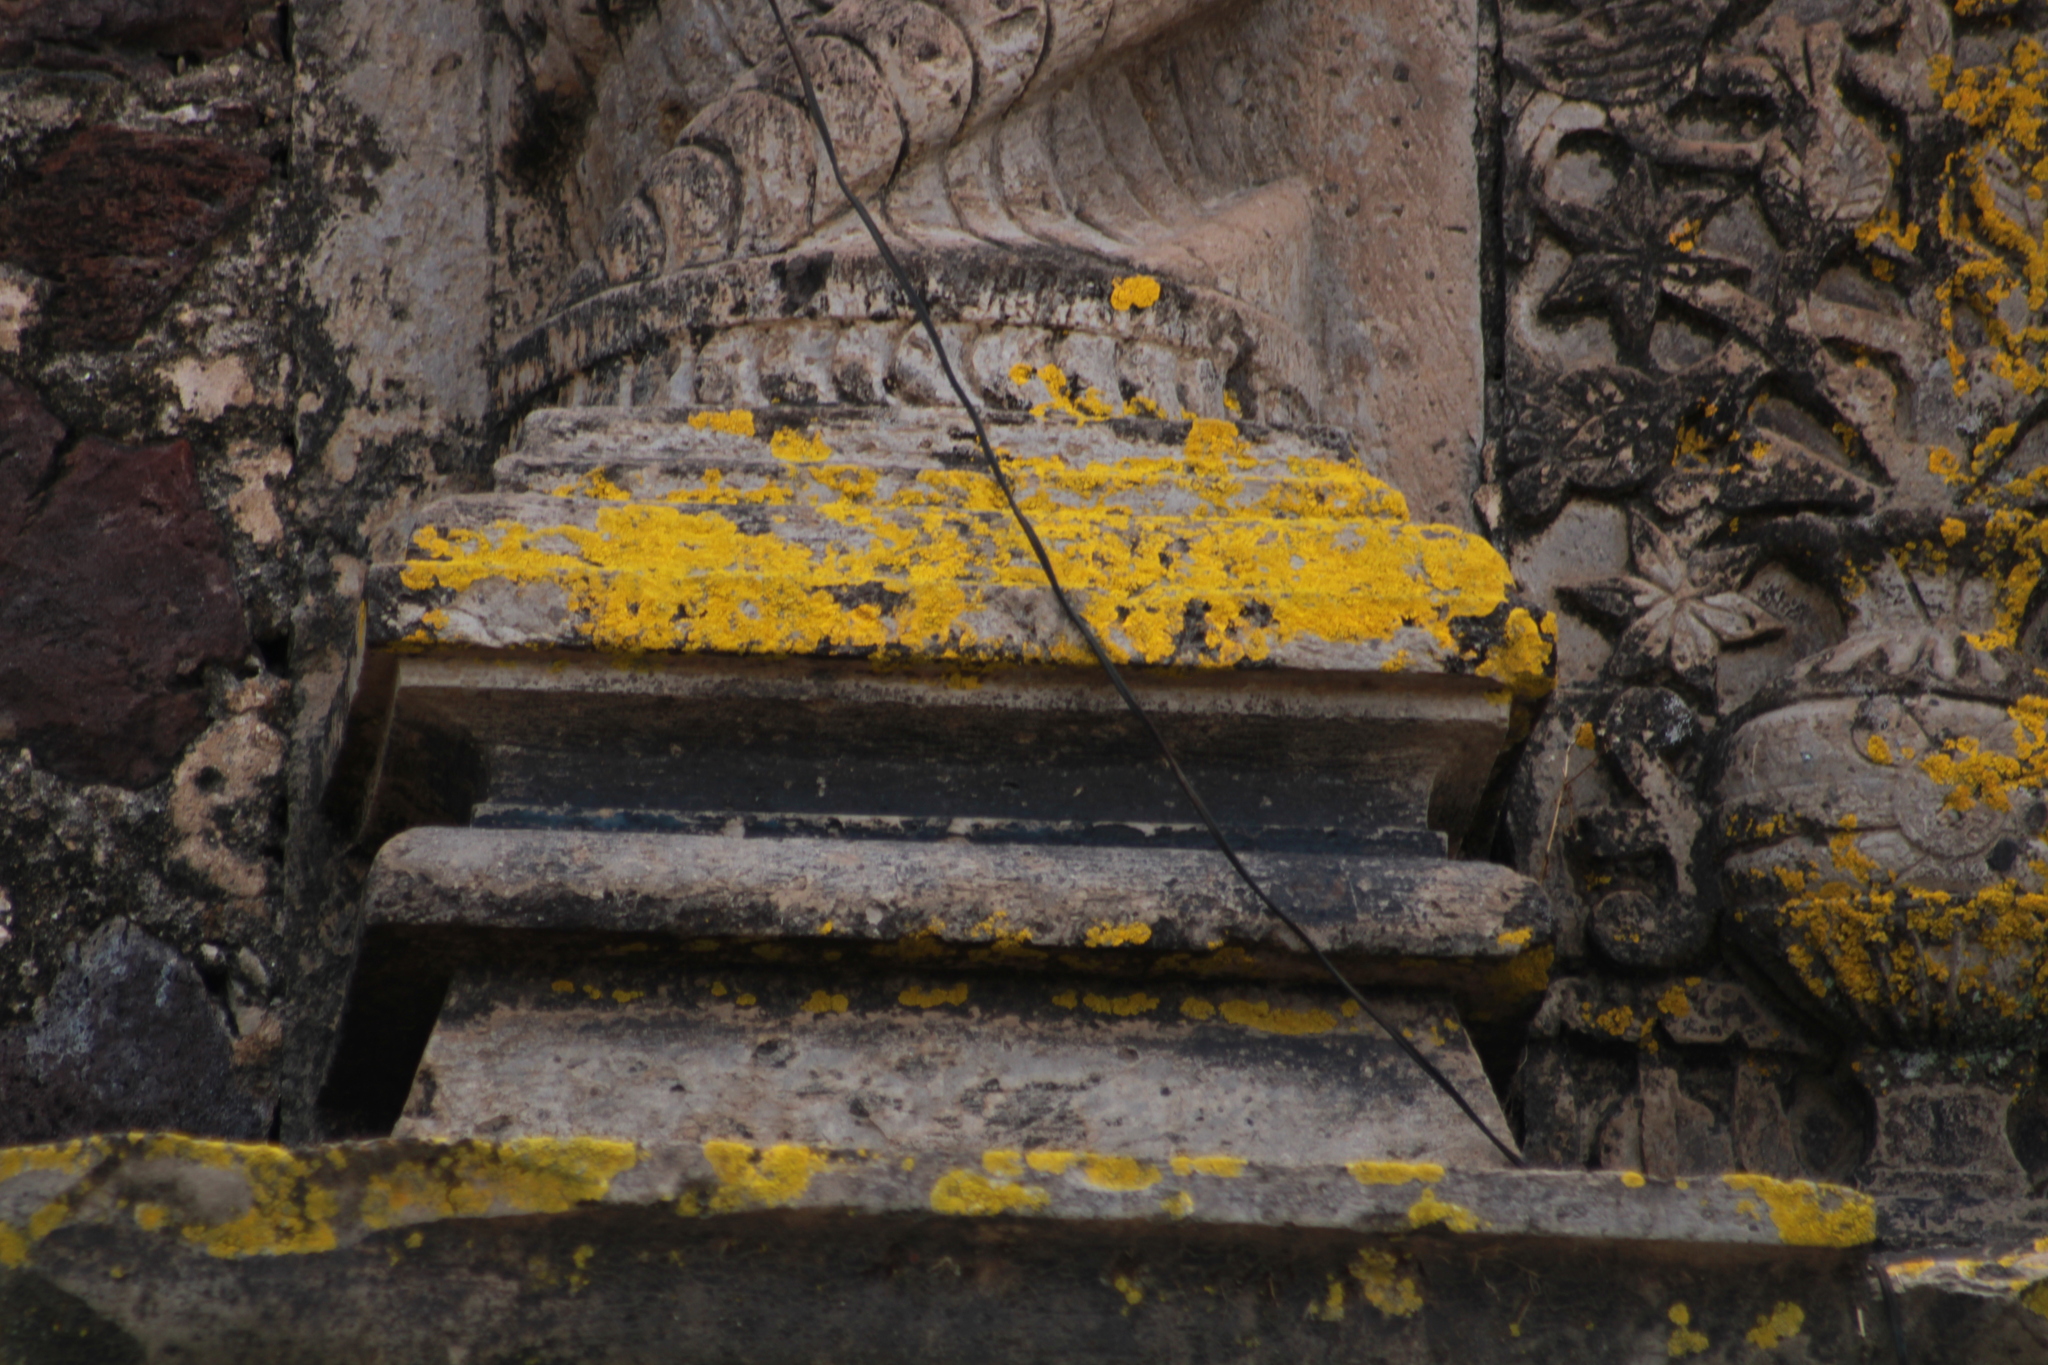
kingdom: Fungi
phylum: Ascomycota
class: Candelariomycetes
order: Candelariales
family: Candelariaceae
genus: Candelina
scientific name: Candelina submexicana
